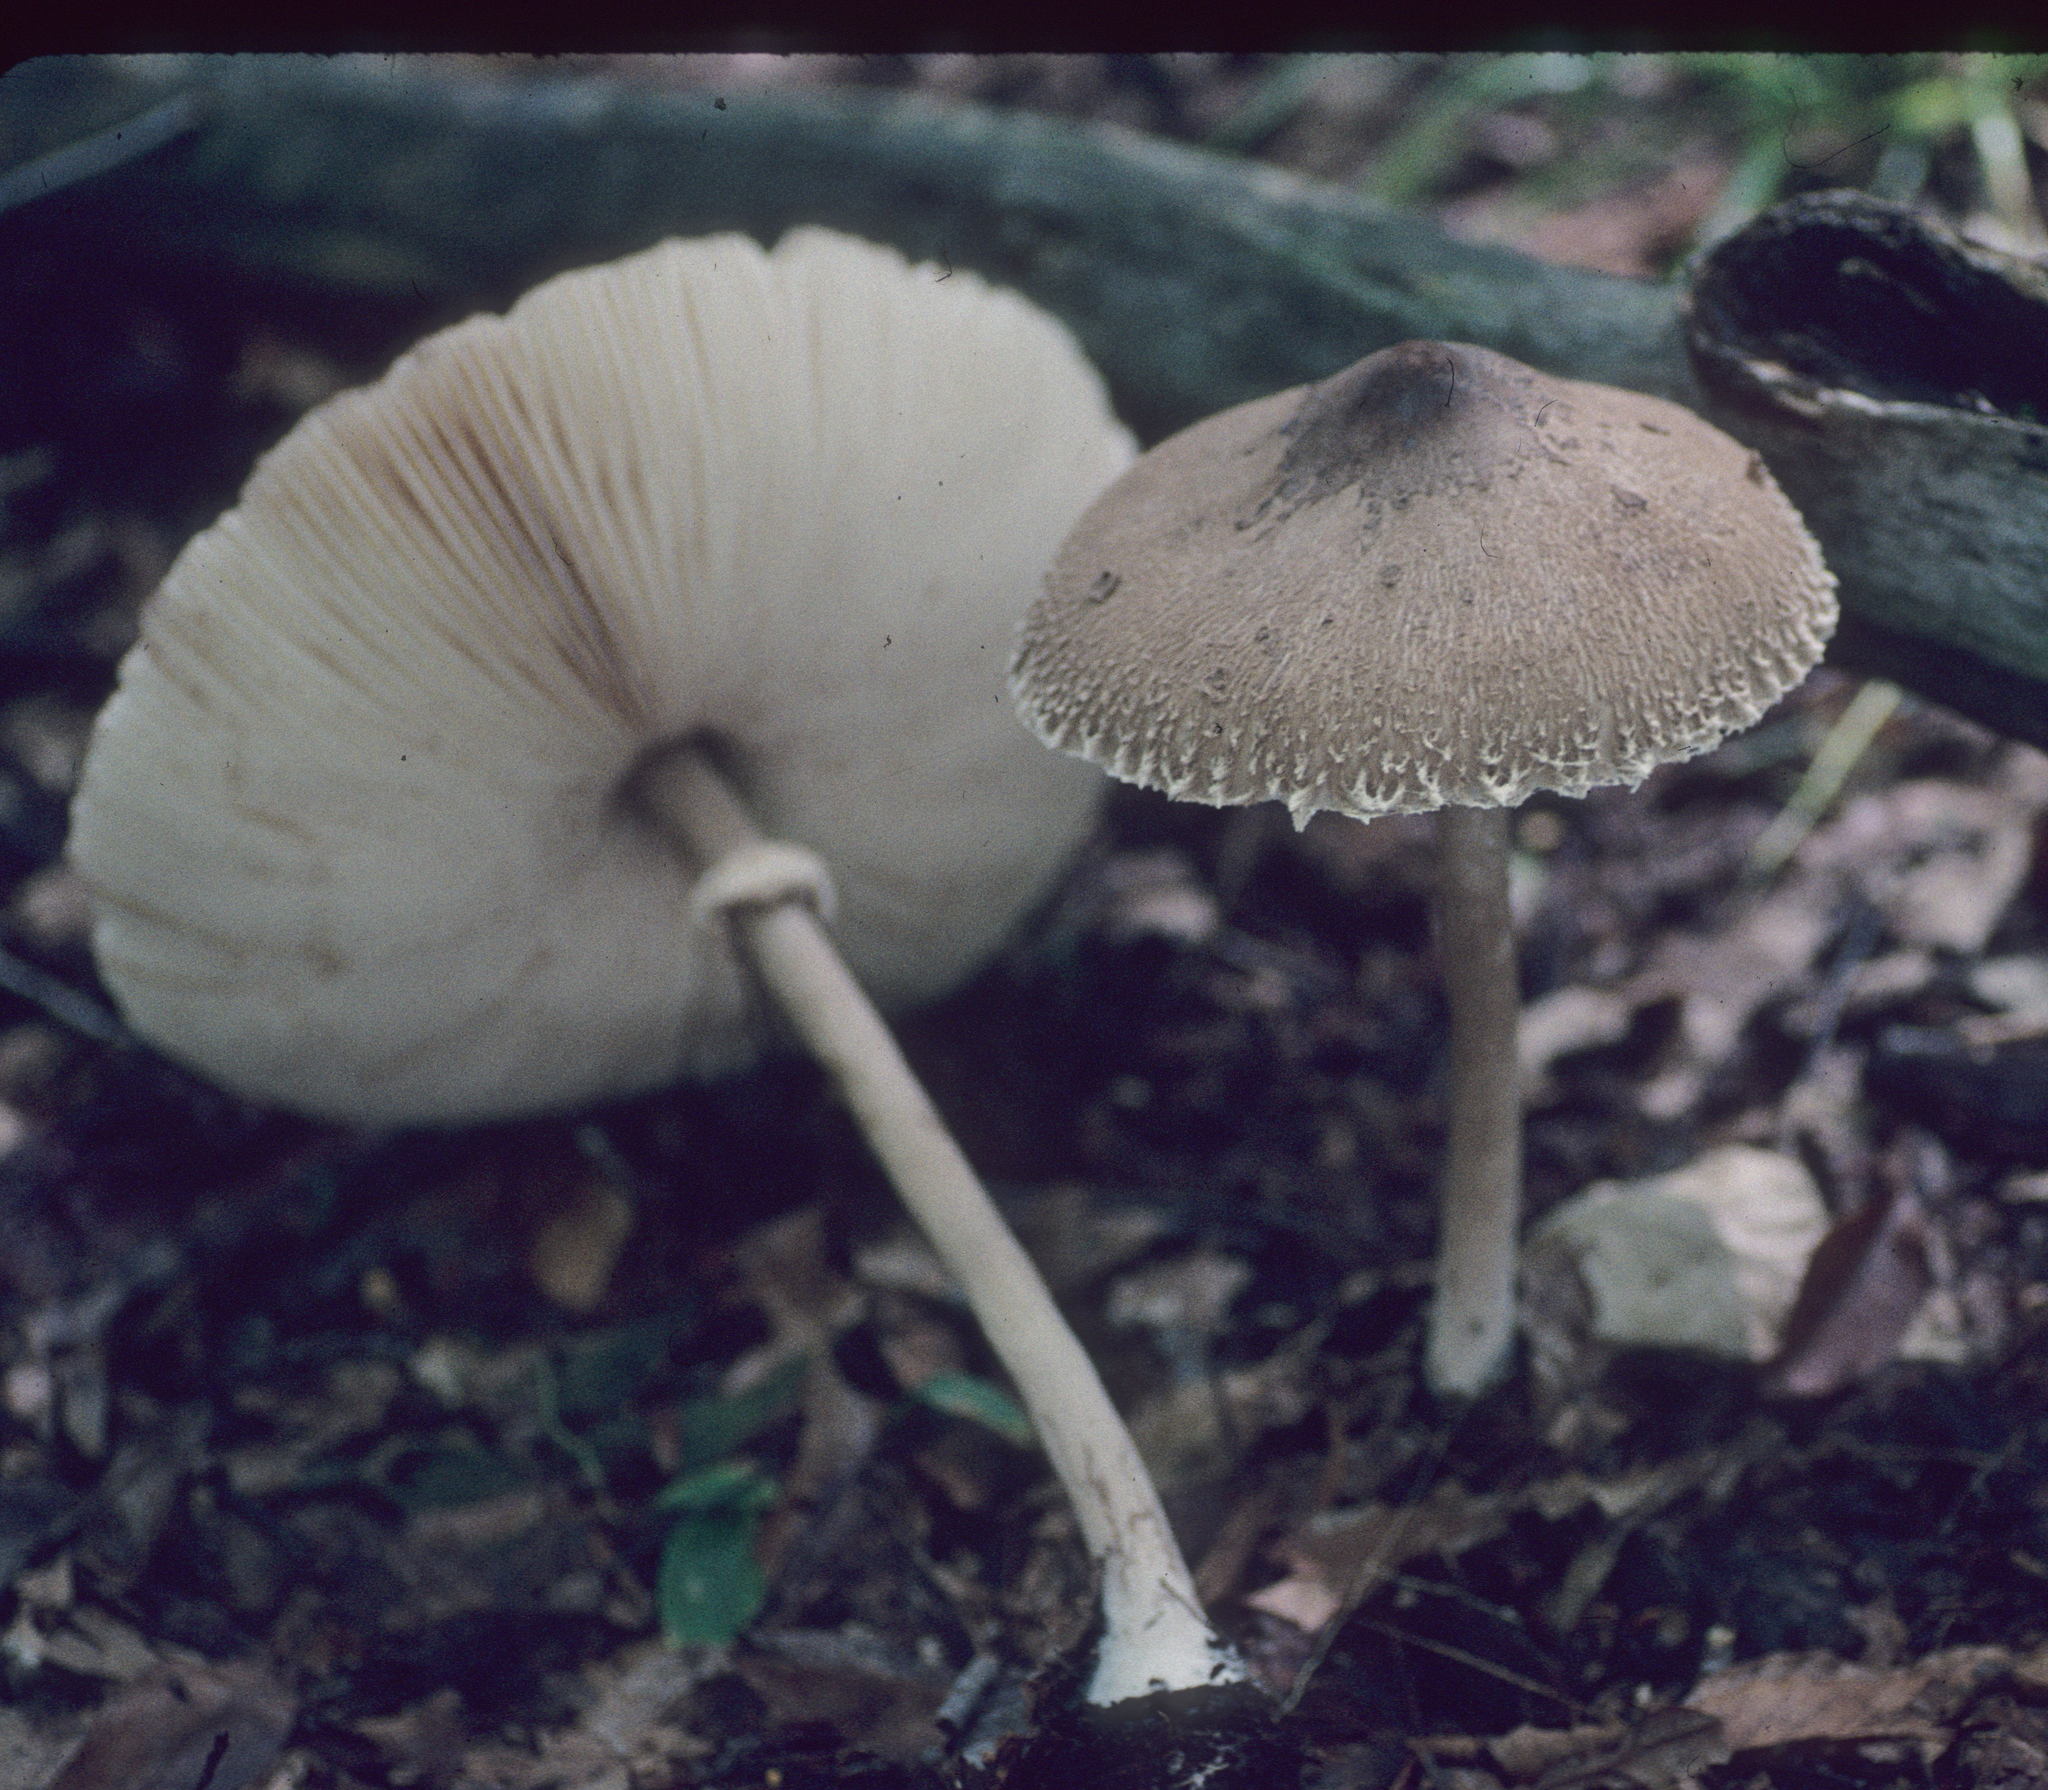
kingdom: Fungi
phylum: Basidiomycota
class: Agaricomycetes
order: Agaricales
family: Agaricaceae
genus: Macrolepiota
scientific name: Macrolepiota prominens
